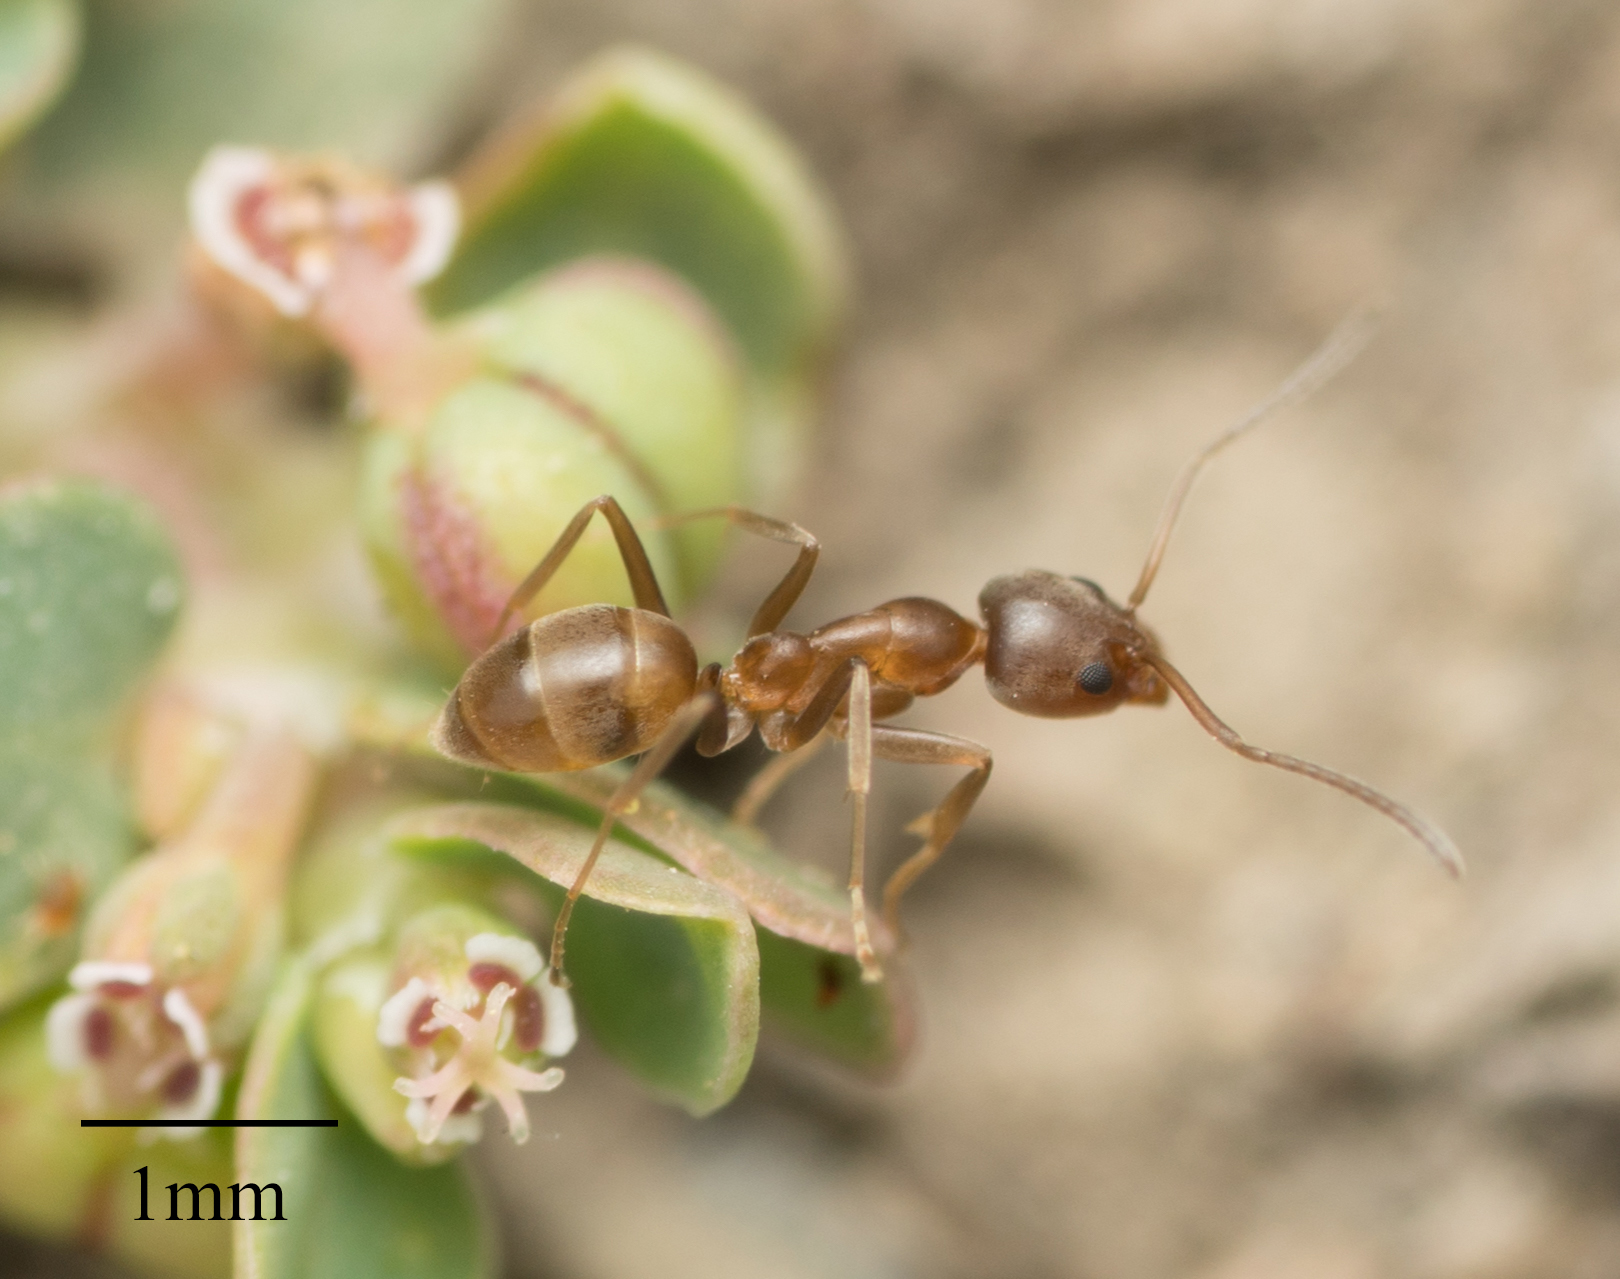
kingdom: Animalia
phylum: Arthropoda
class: Insecta
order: Hymenoptera
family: Formicidae
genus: Linepithema
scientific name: Linepithema humile
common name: Argentine ant
